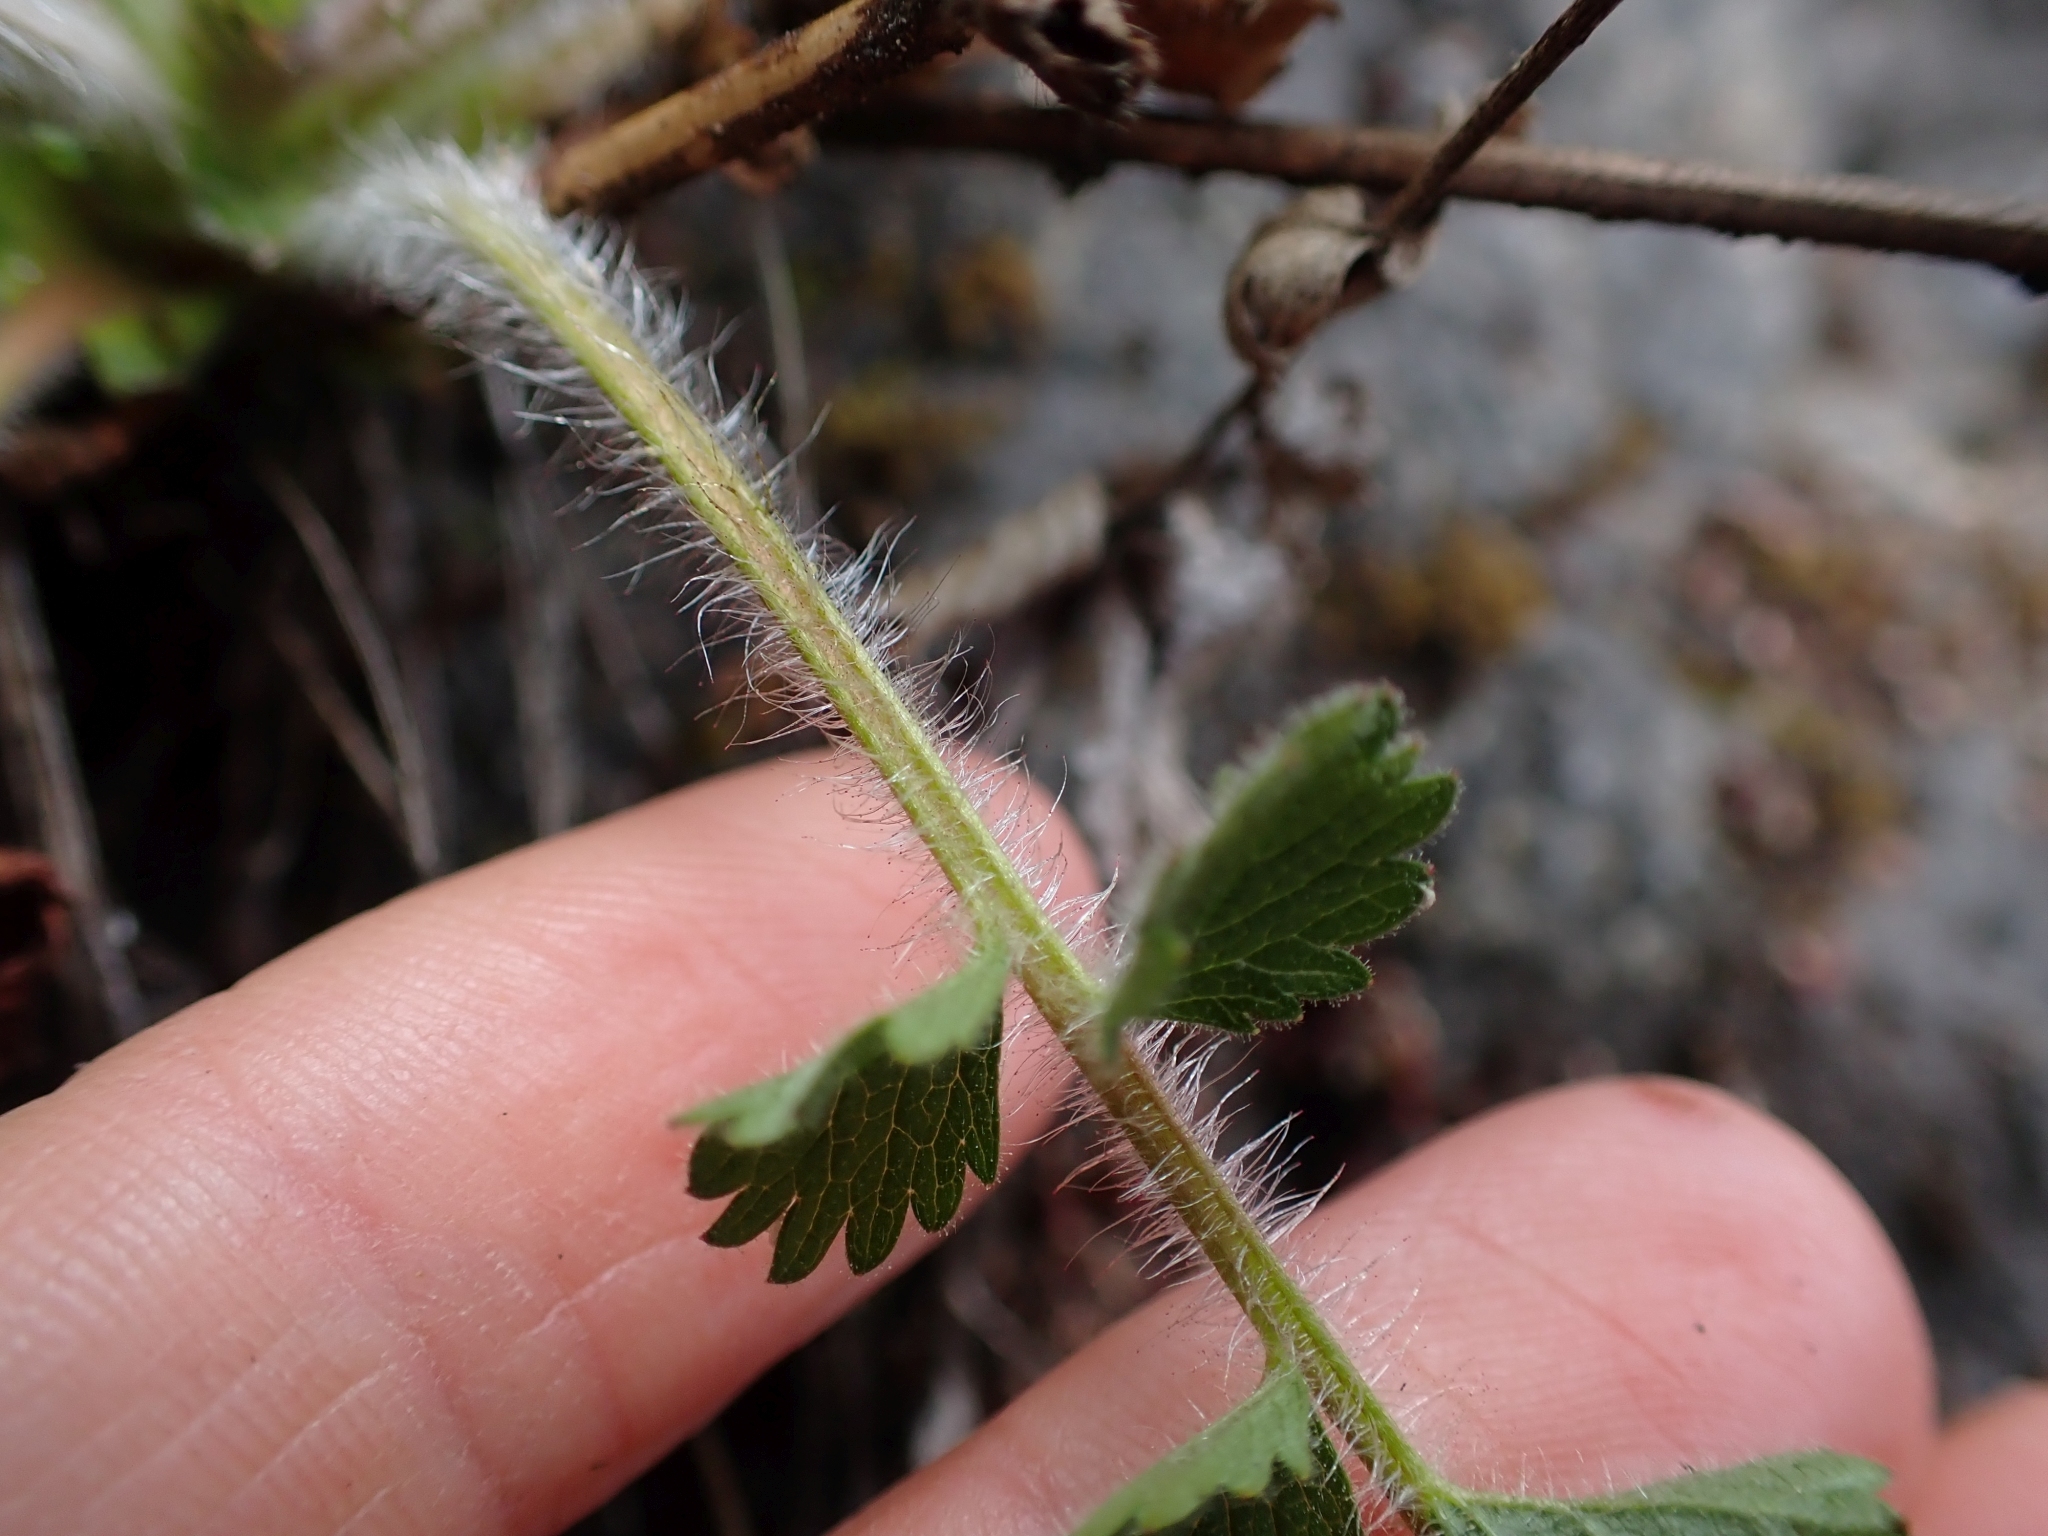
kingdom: Plantae
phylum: Tracheophyta
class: Magnoliopsida
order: Rosales
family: Rosaceae
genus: Drymocallis
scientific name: Drymocallis glandulosa
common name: Sticky cinquefoil
